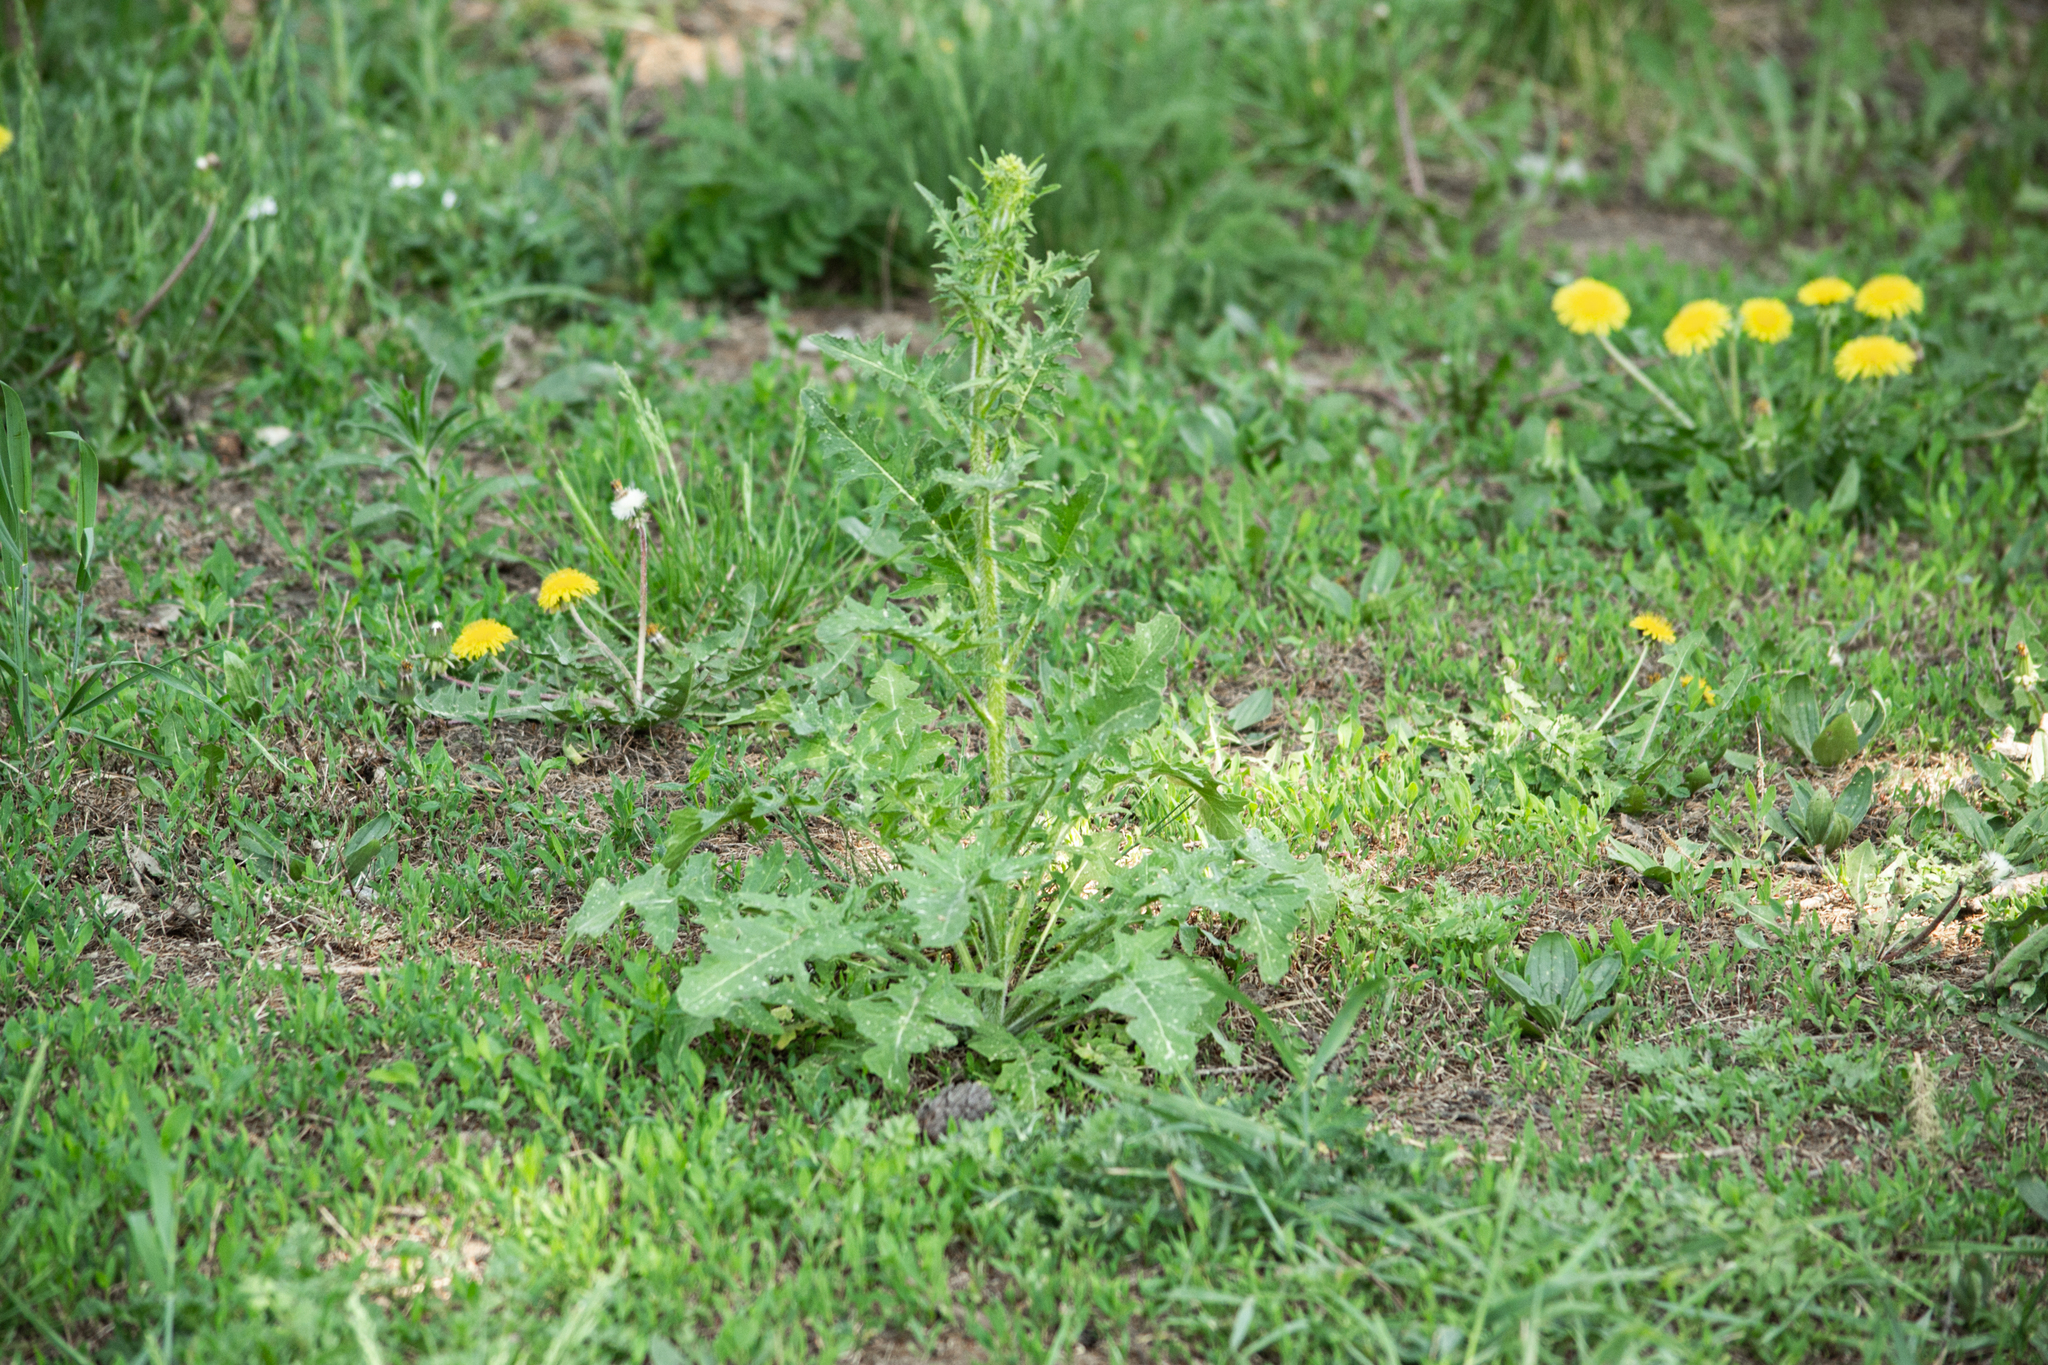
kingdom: Plantae
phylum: Tracheophyta
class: Magnoliopsida
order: Brassicales
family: Brassicaceae
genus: Sisymbrium
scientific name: Sisymbrium loeselii
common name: False london-rocket
